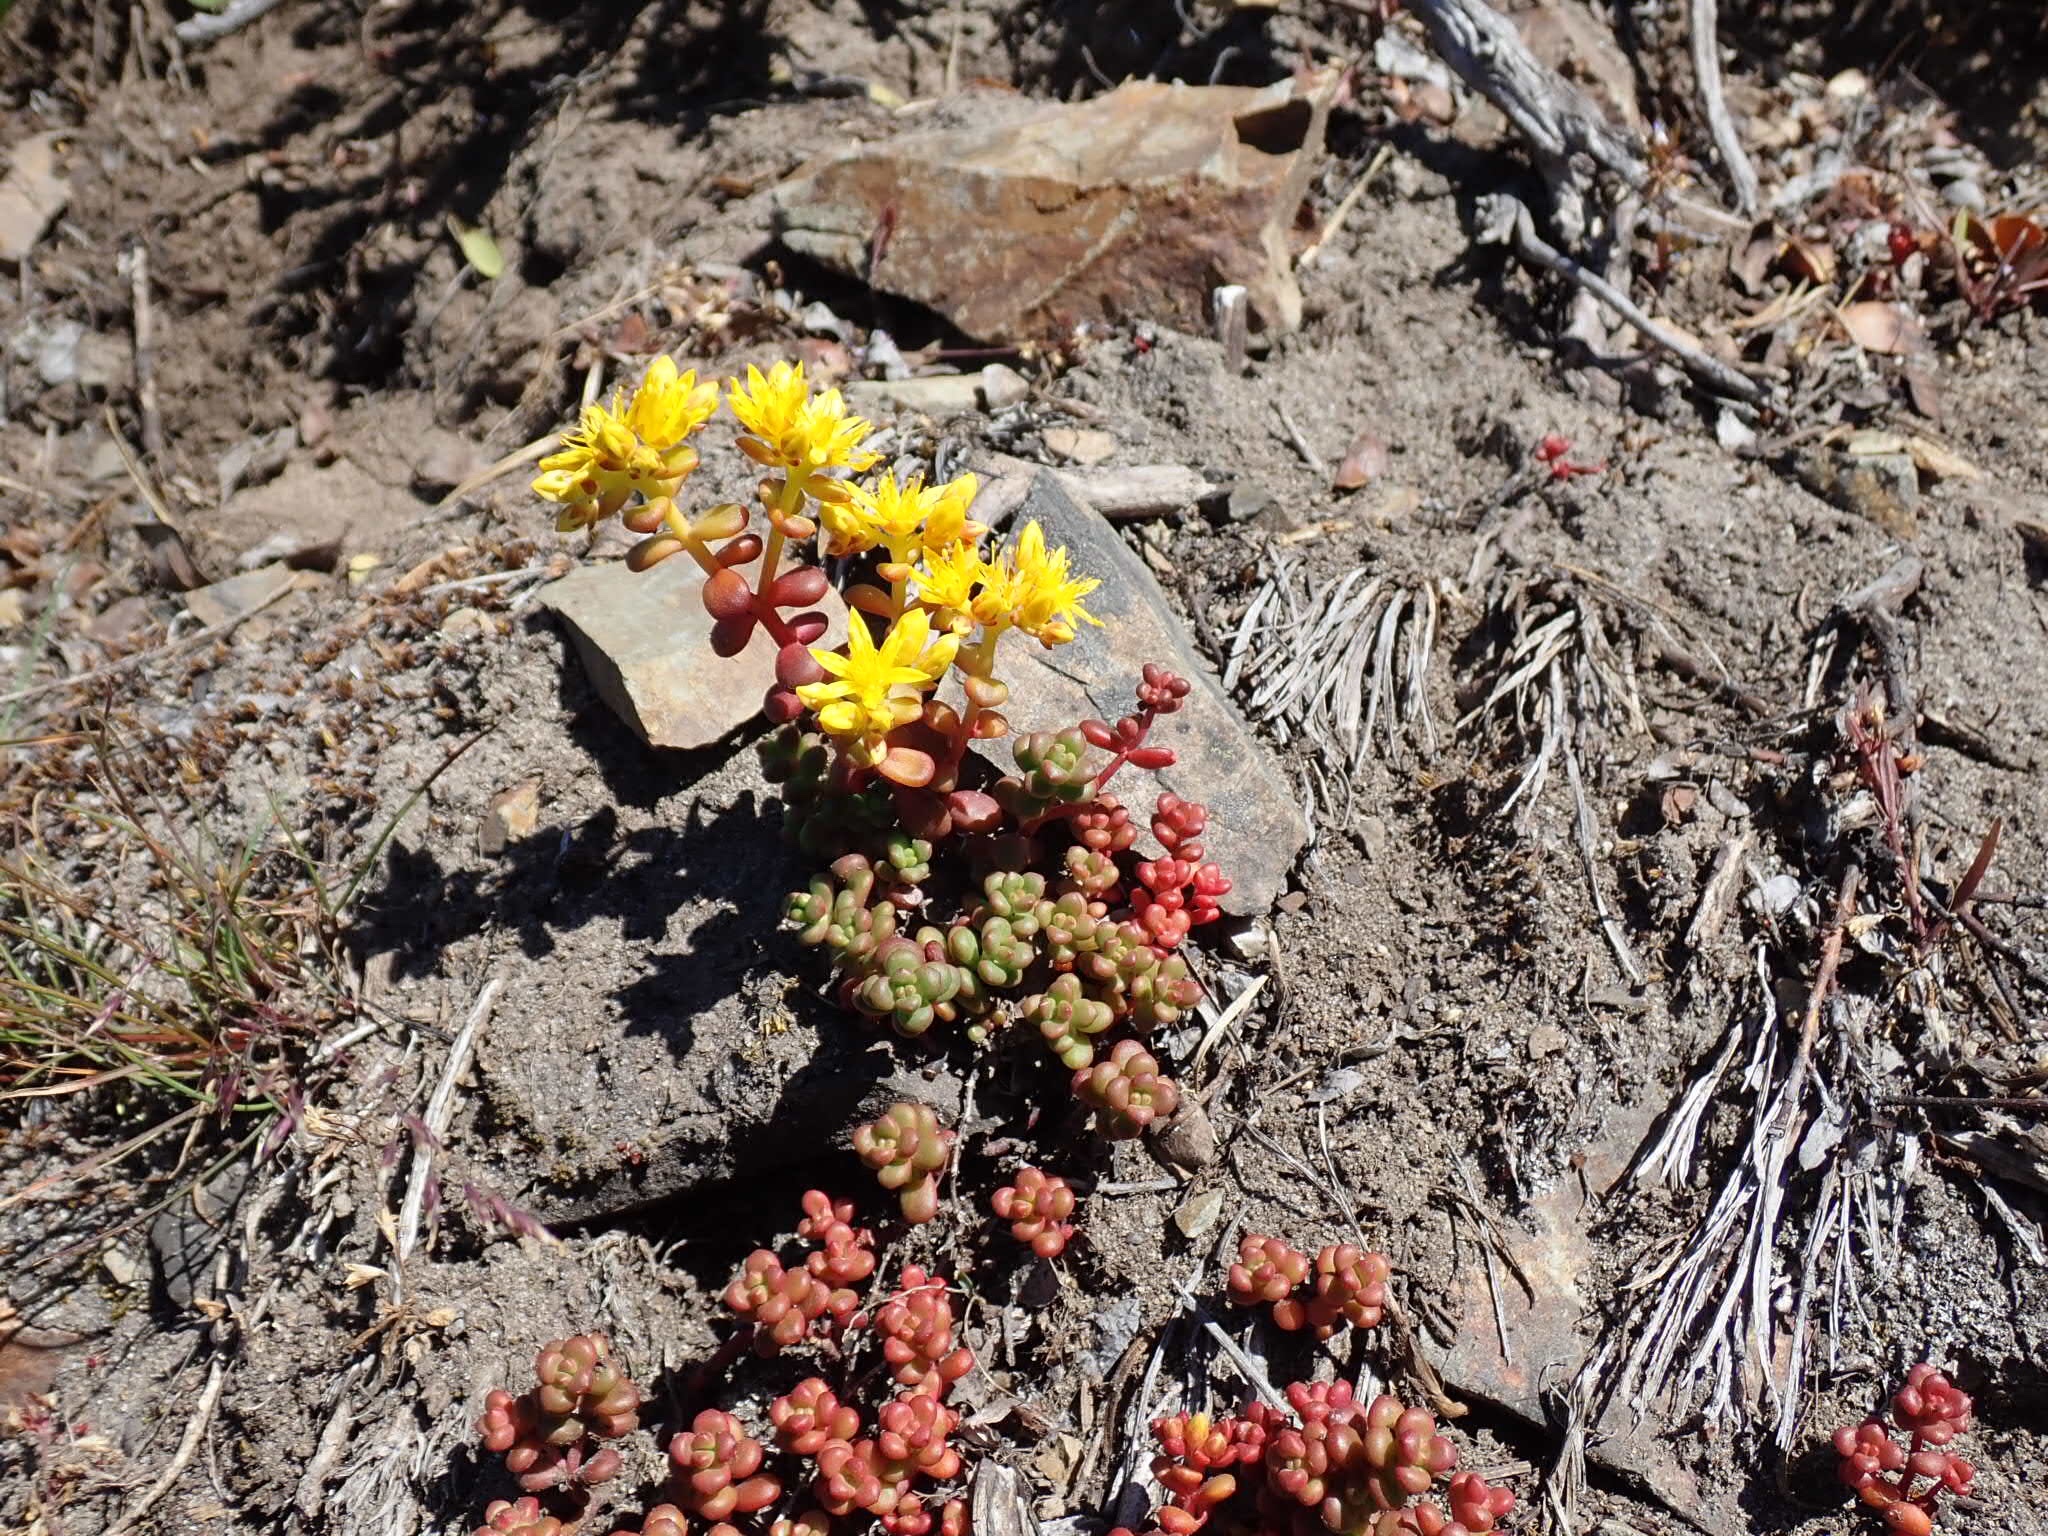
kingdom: Plantae
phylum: Tracheophyta
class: Magnoliopsida
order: Saxifragales
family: Crassulaceae
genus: Sedum
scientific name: Sedum divergens
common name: Cascade stonecrop
